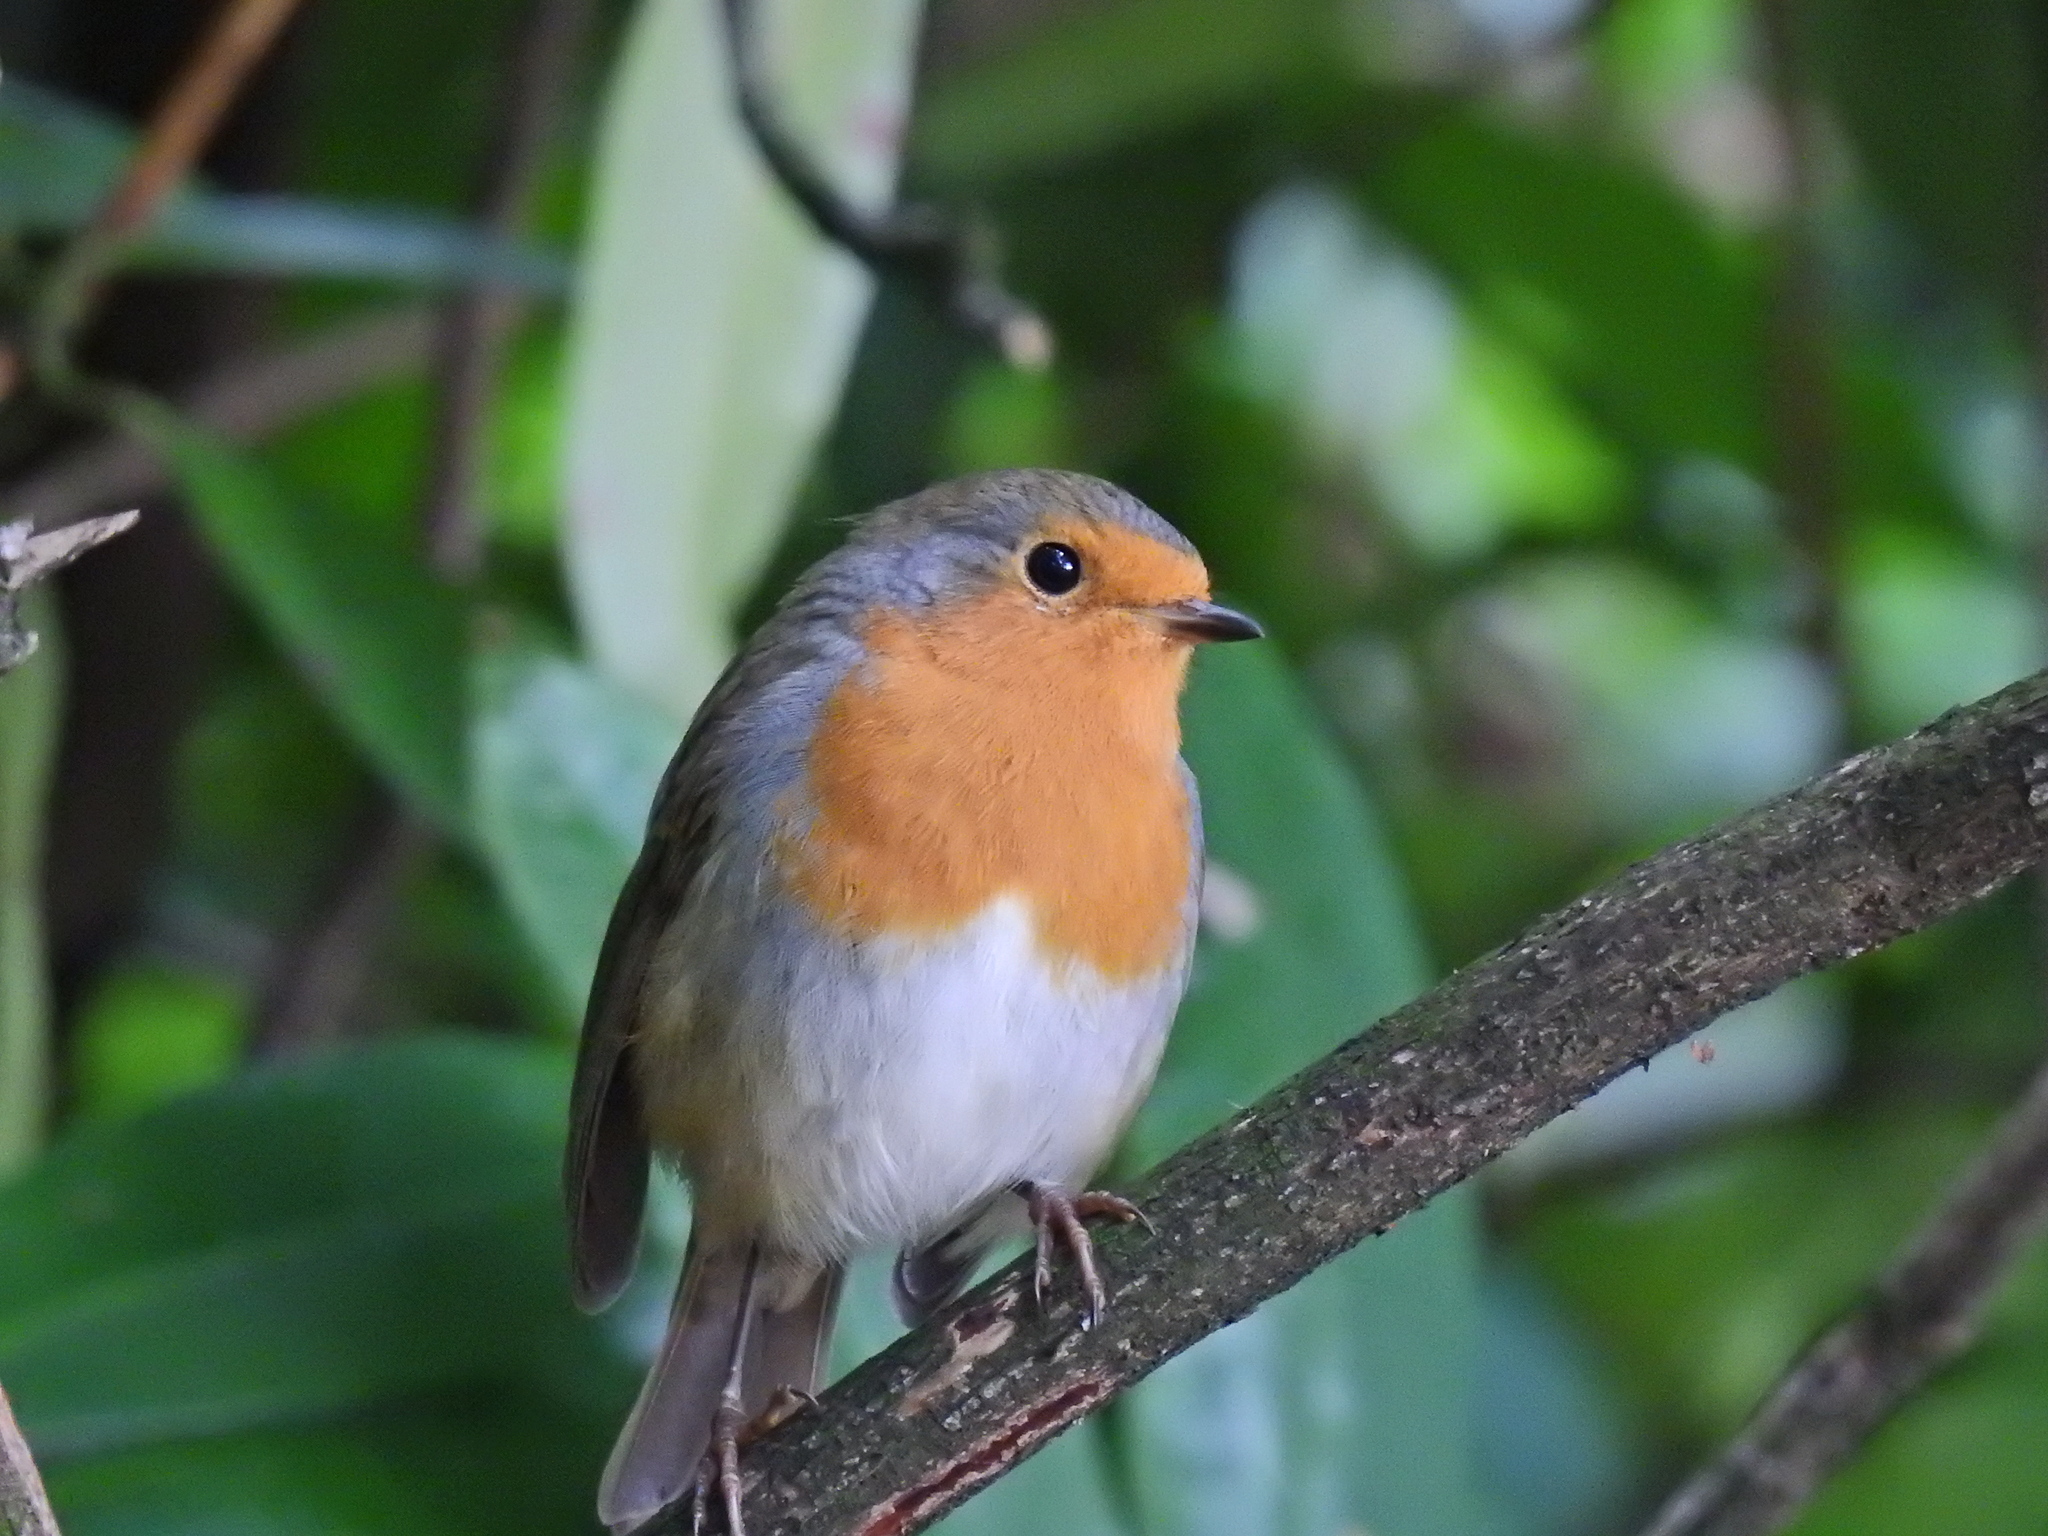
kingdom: Animalia
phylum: Chordata
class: Aves
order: Passeriformes
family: Muscicapidae
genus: Erithacus
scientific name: Erithacus rubecula
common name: European robin
